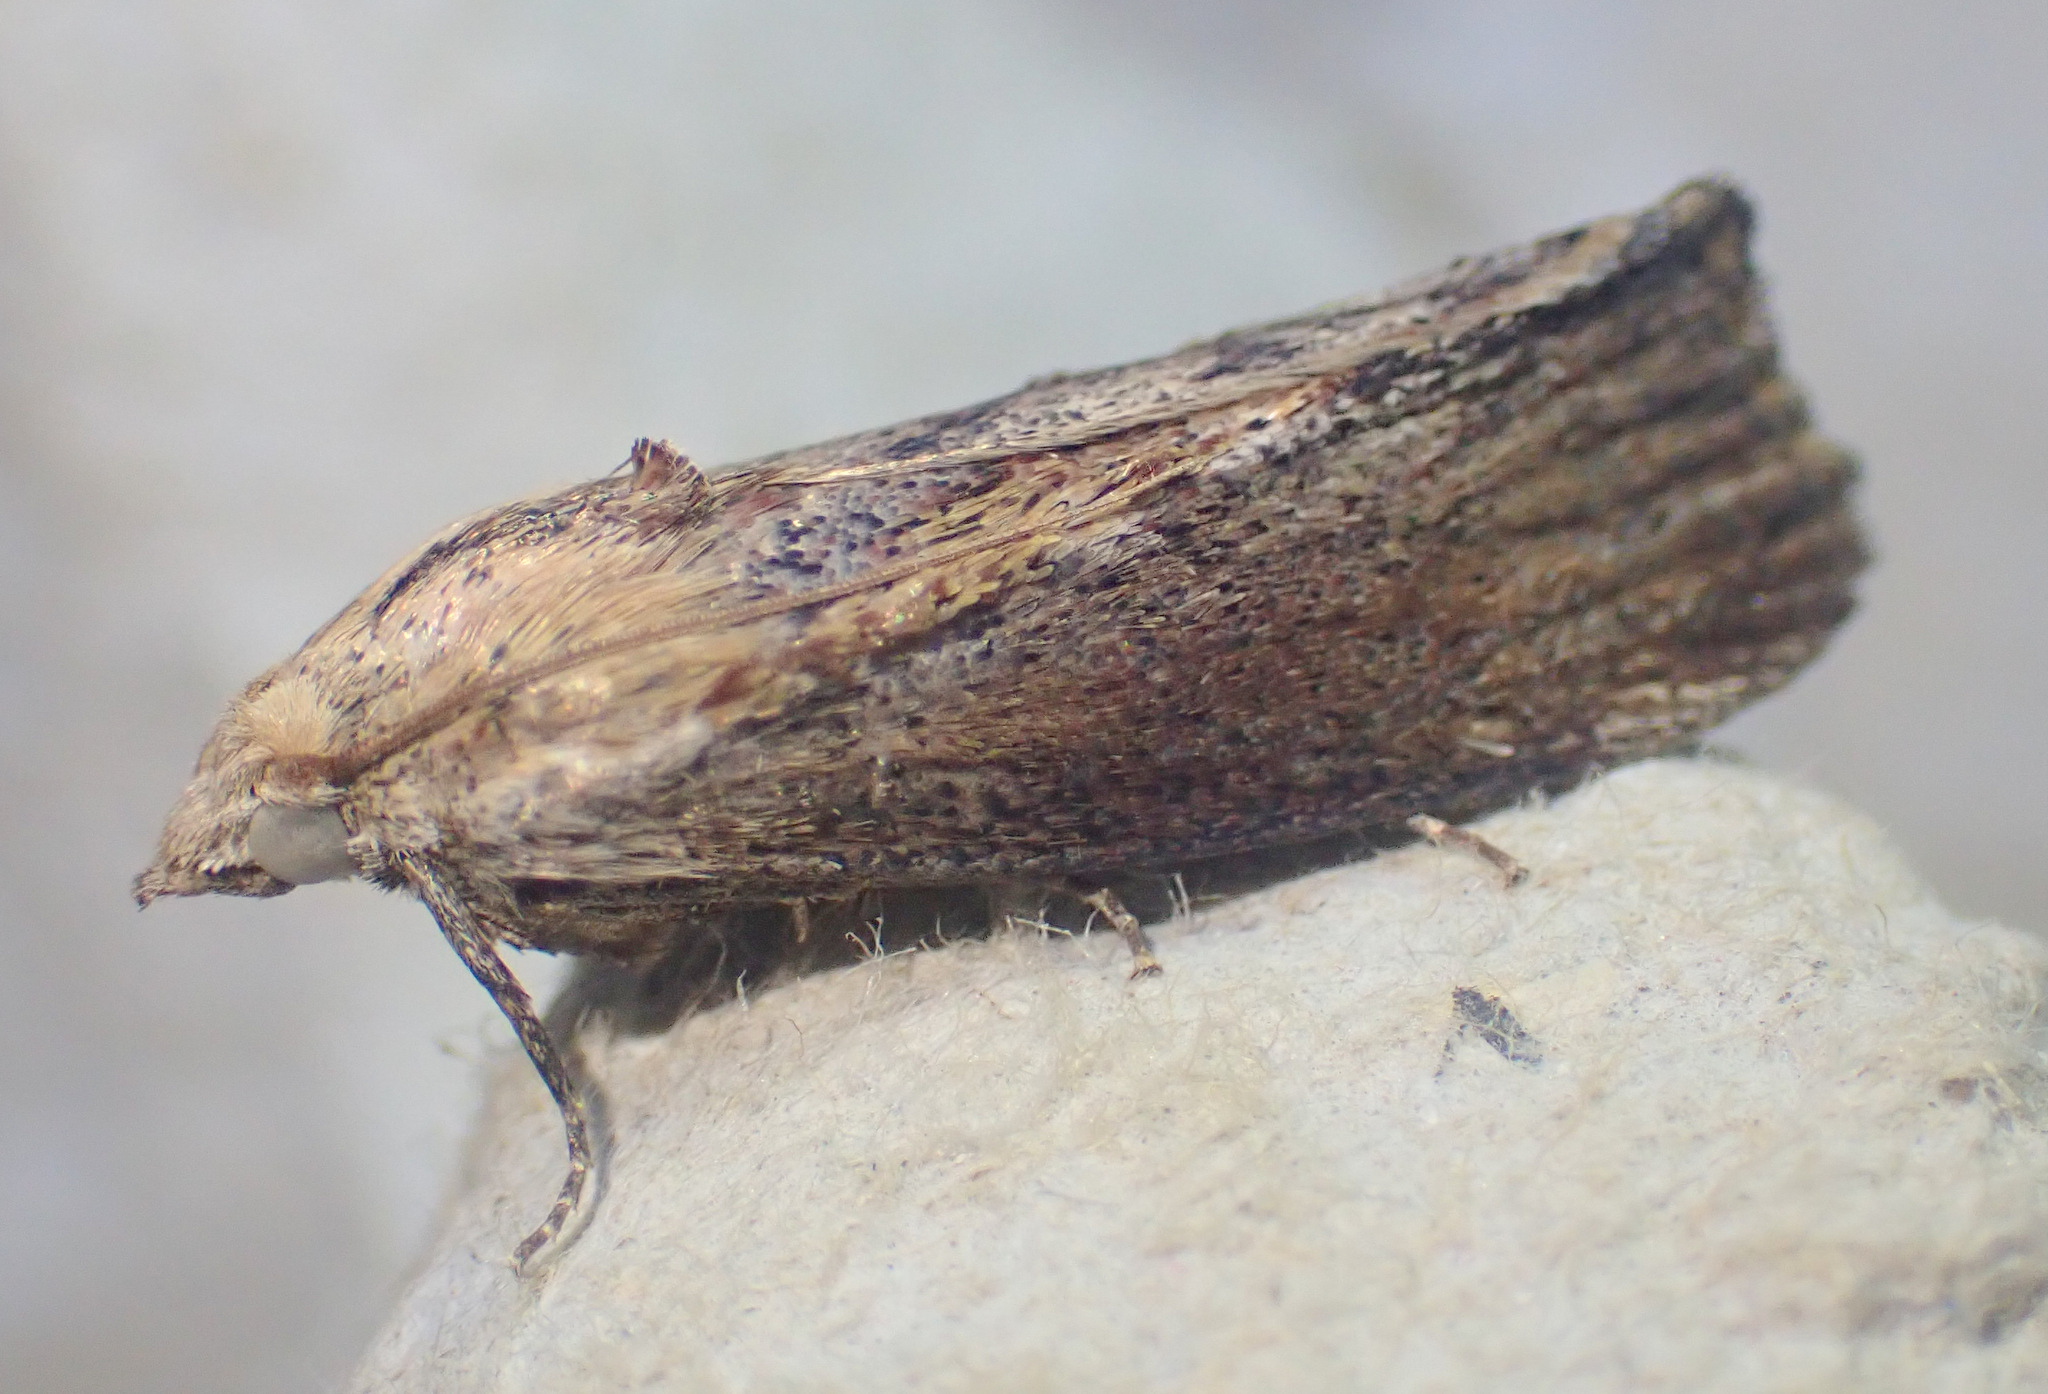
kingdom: Animalia
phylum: Arthropoda
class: Insecta
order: Lepidoptera
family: Pyralidae
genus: Galleria
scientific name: Galleria mellonella
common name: Greater wax moth
